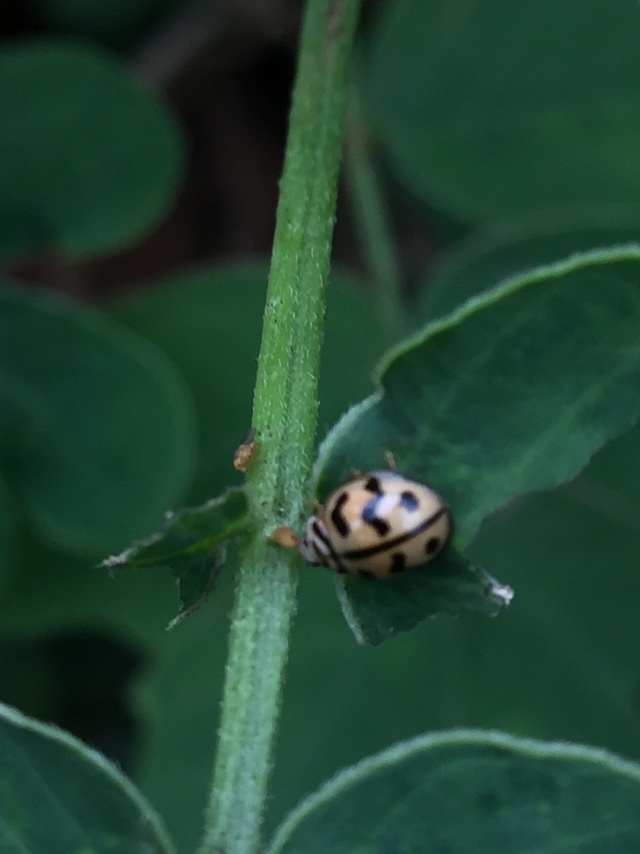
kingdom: Animalia
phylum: Arthropoda
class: Insecta
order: Coleoptera
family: Coccinellidae
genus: Cheilomenes
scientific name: Cheilomenes sexmaculata
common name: Ladybird beetle
